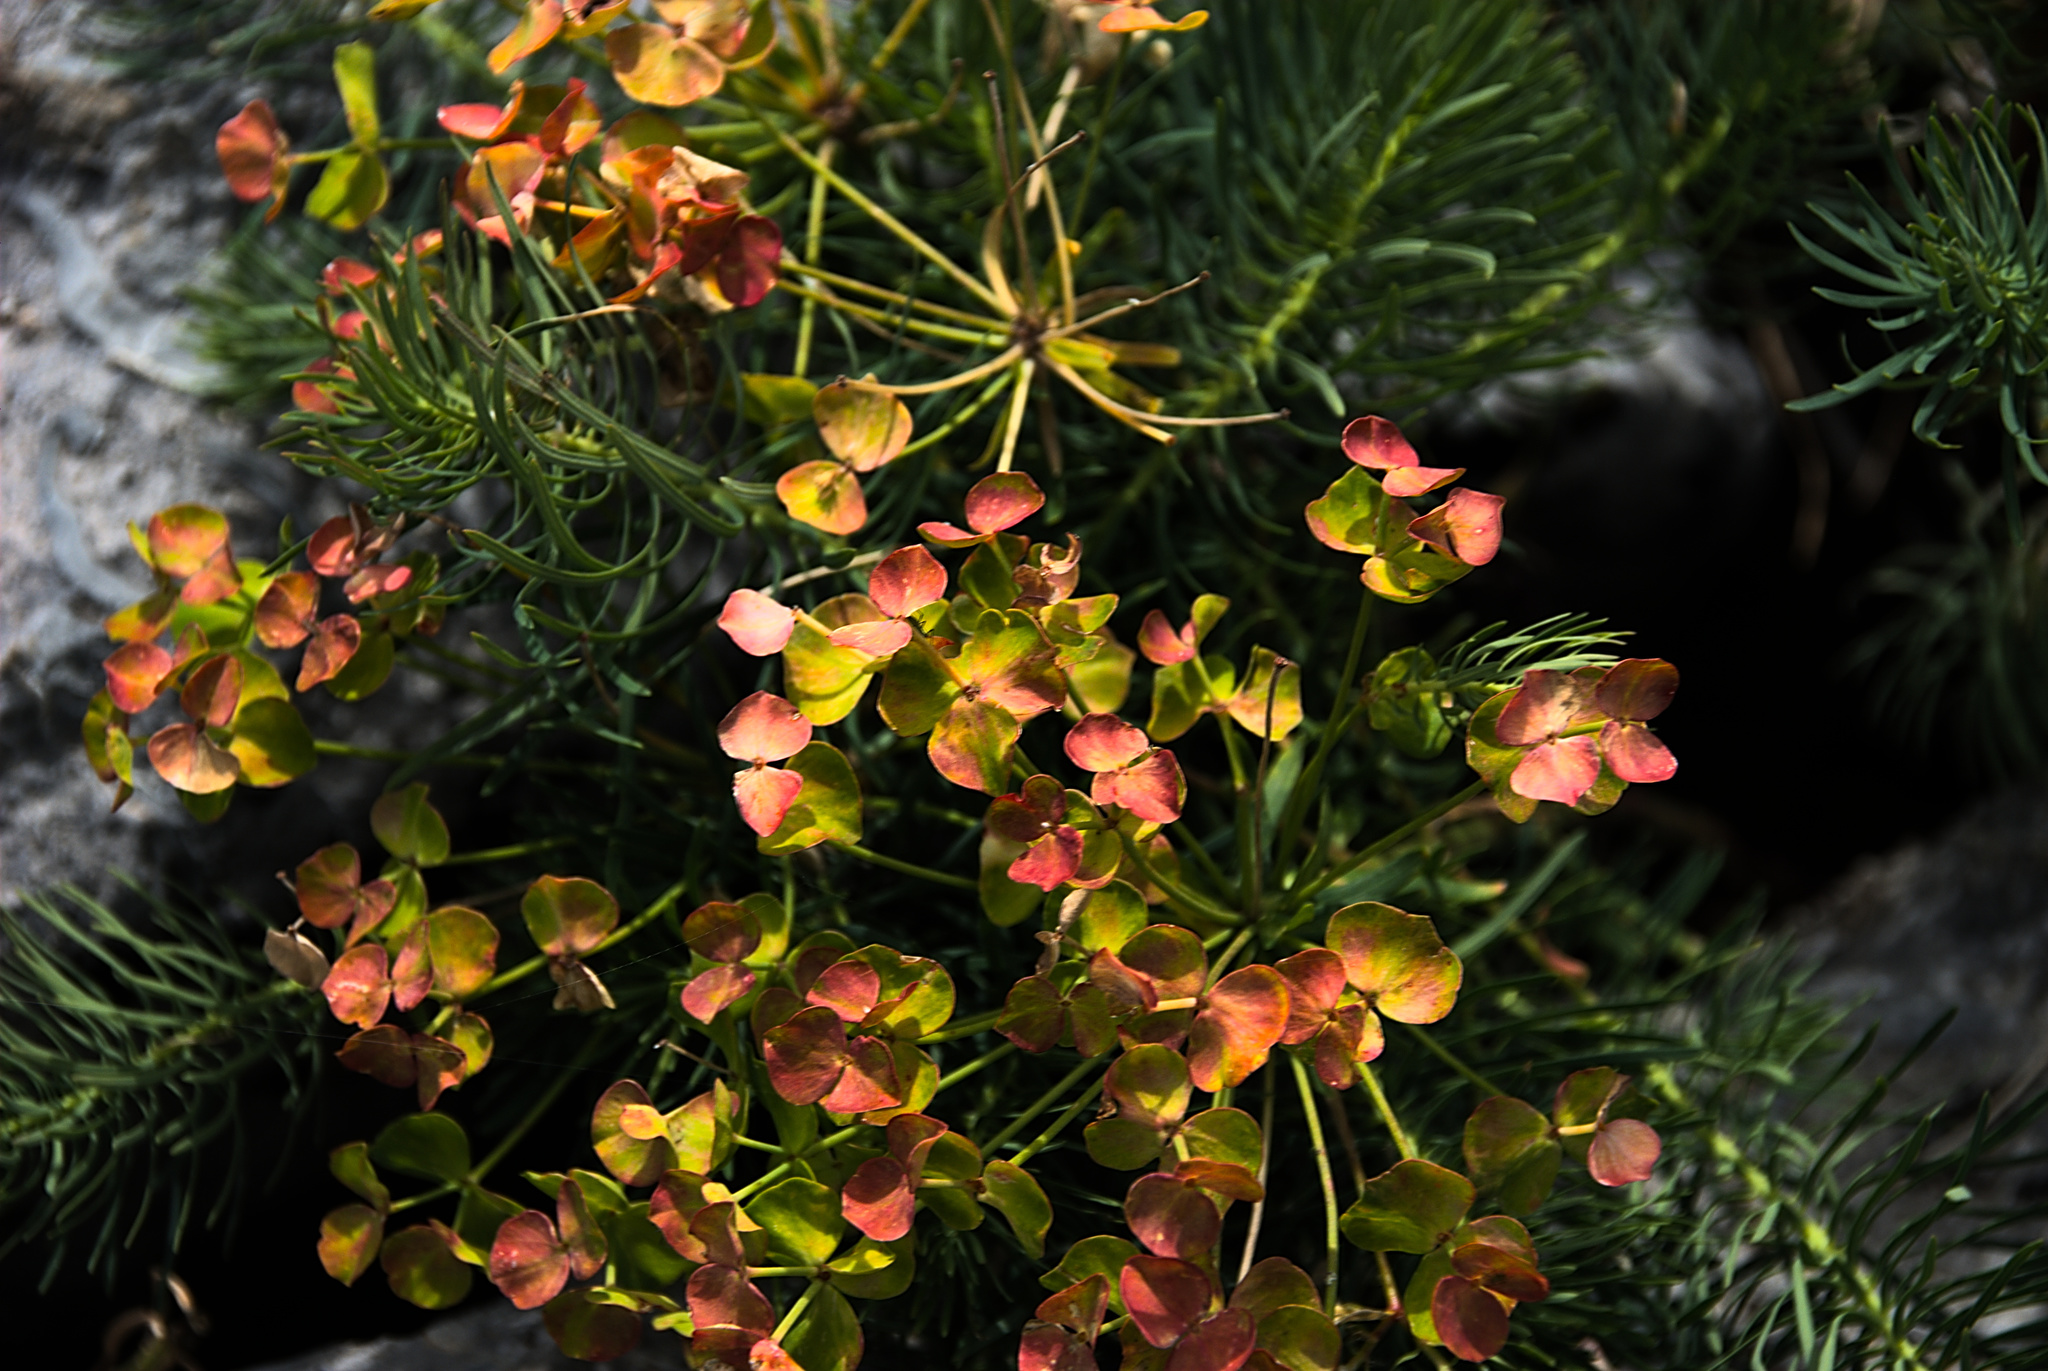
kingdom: Plantae
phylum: Tracheophyta
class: Magnoliopsida
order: Malpighiales
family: Euphorbiaceae
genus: Euphorbia
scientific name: Euphorbia cyparissias
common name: Cypress spurge
